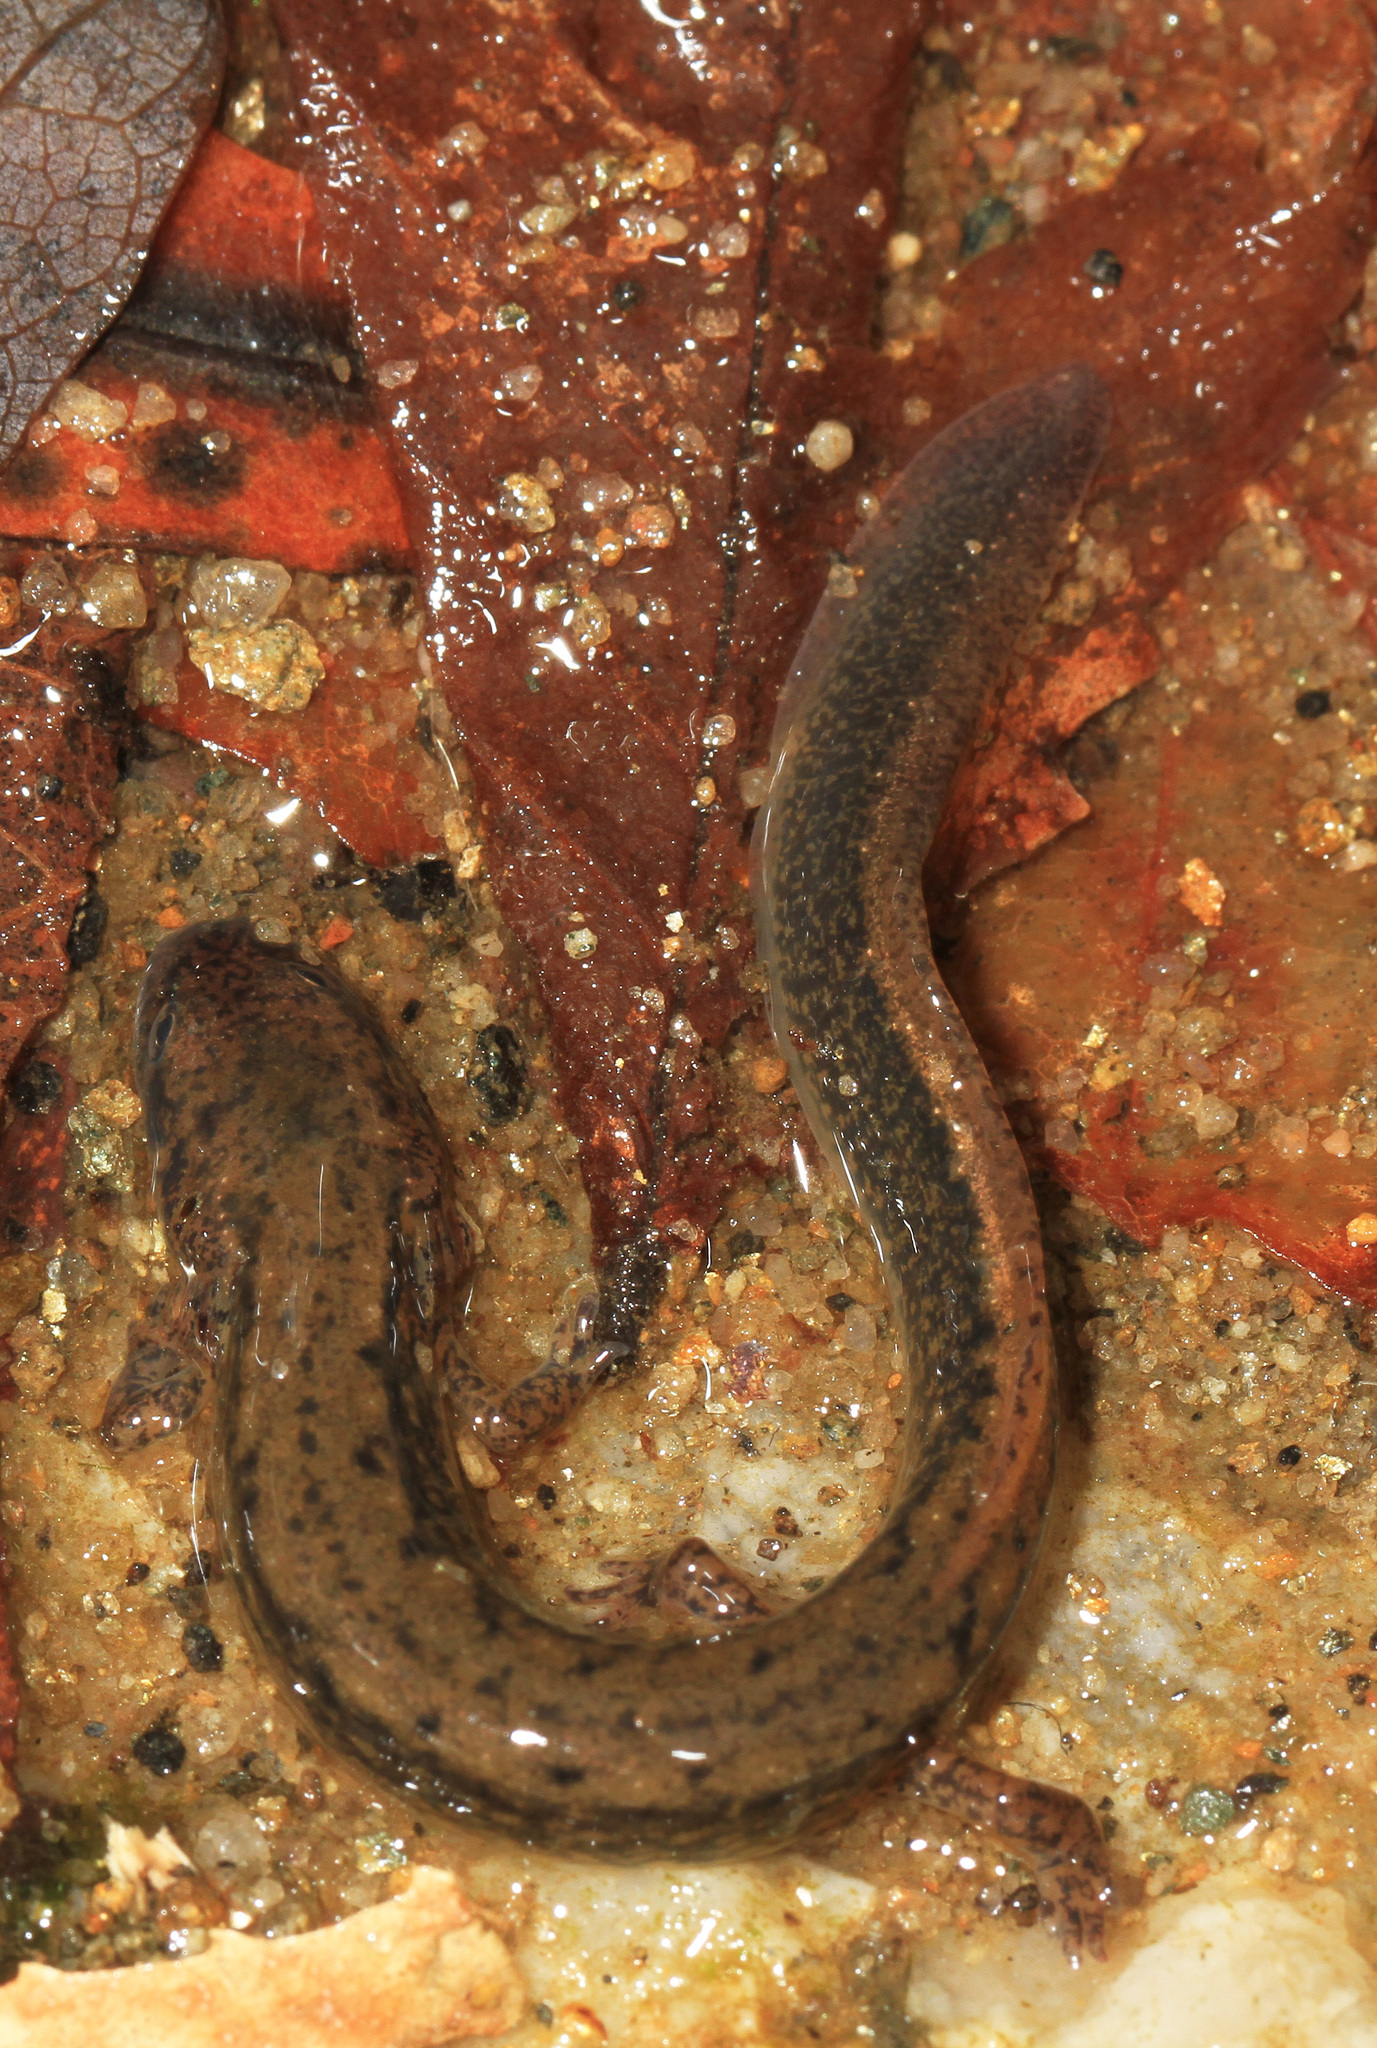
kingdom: Animalia
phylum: Chordata
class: Amphibia
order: Caudata
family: Plethodontidae
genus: Eurycea
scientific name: Eurycea bislineata
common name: Northern two-lined salamander
